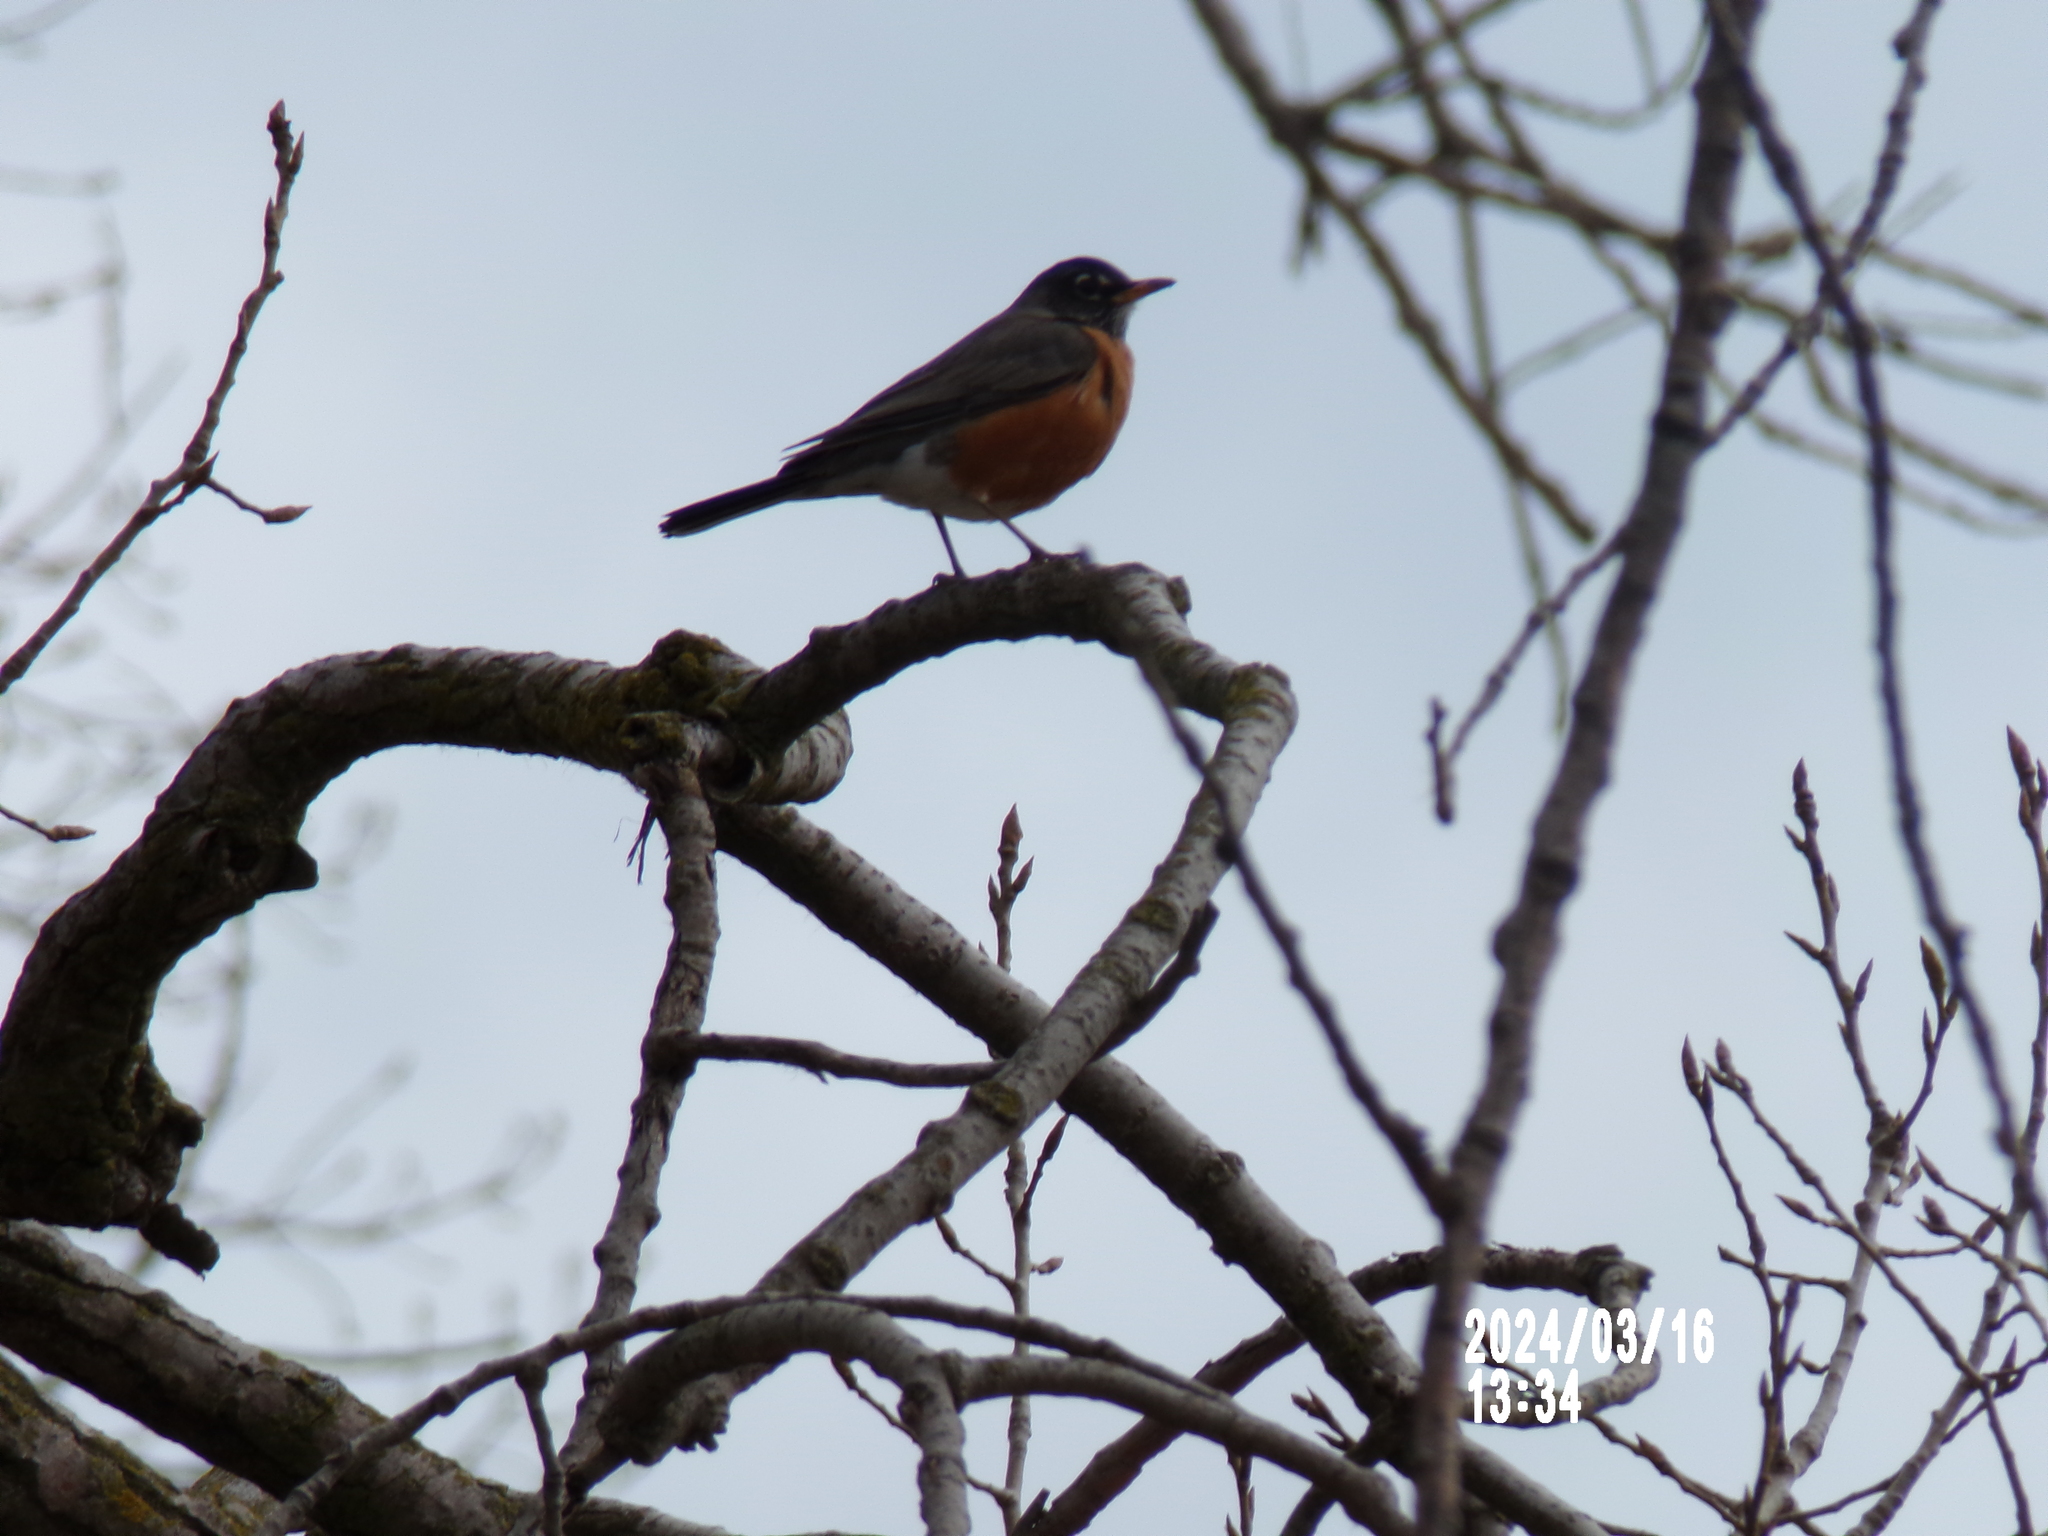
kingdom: Animalia
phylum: Chordata
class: Aves
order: Passeriformes
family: Turdidae
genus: Turdus
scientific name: Turdus migratorius
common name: American robin
